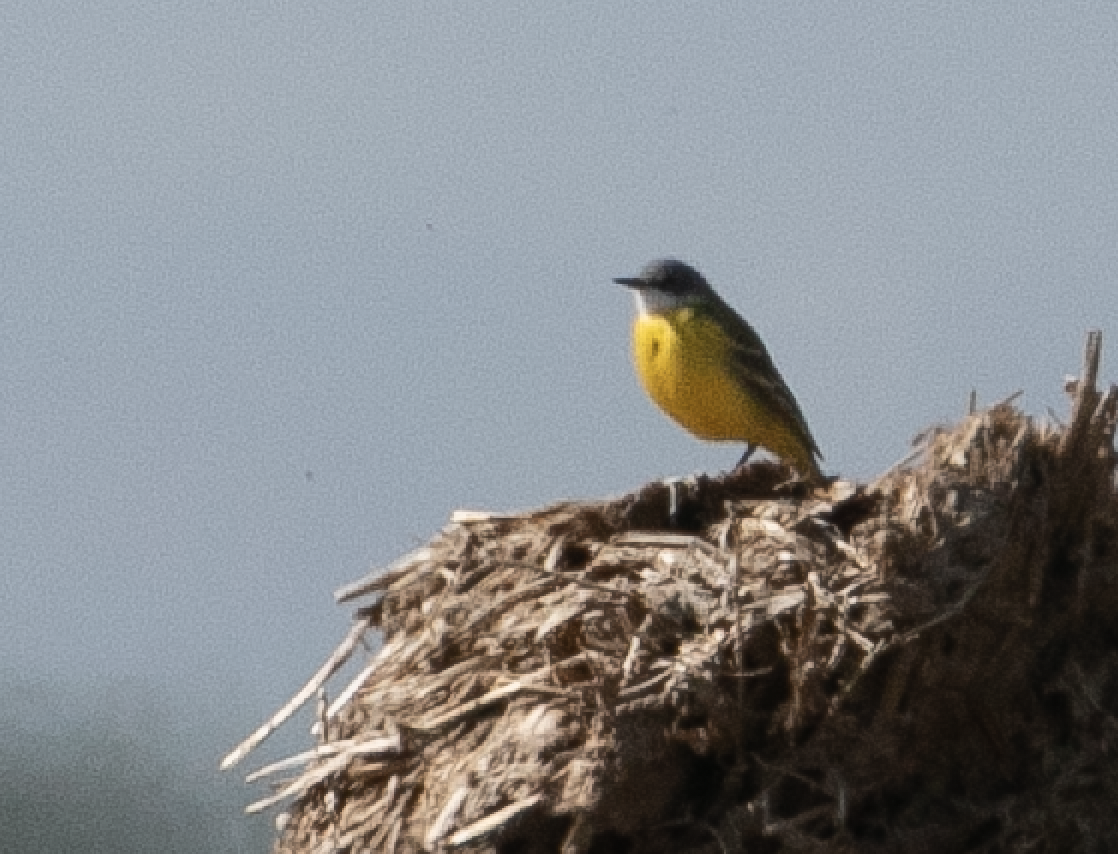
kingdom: Animalia
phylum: Chordata
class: Aves
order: Passeriformes
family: Motacillidae
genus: Motacilla
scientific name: Motacilla flava
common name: Western yellow wagtail
